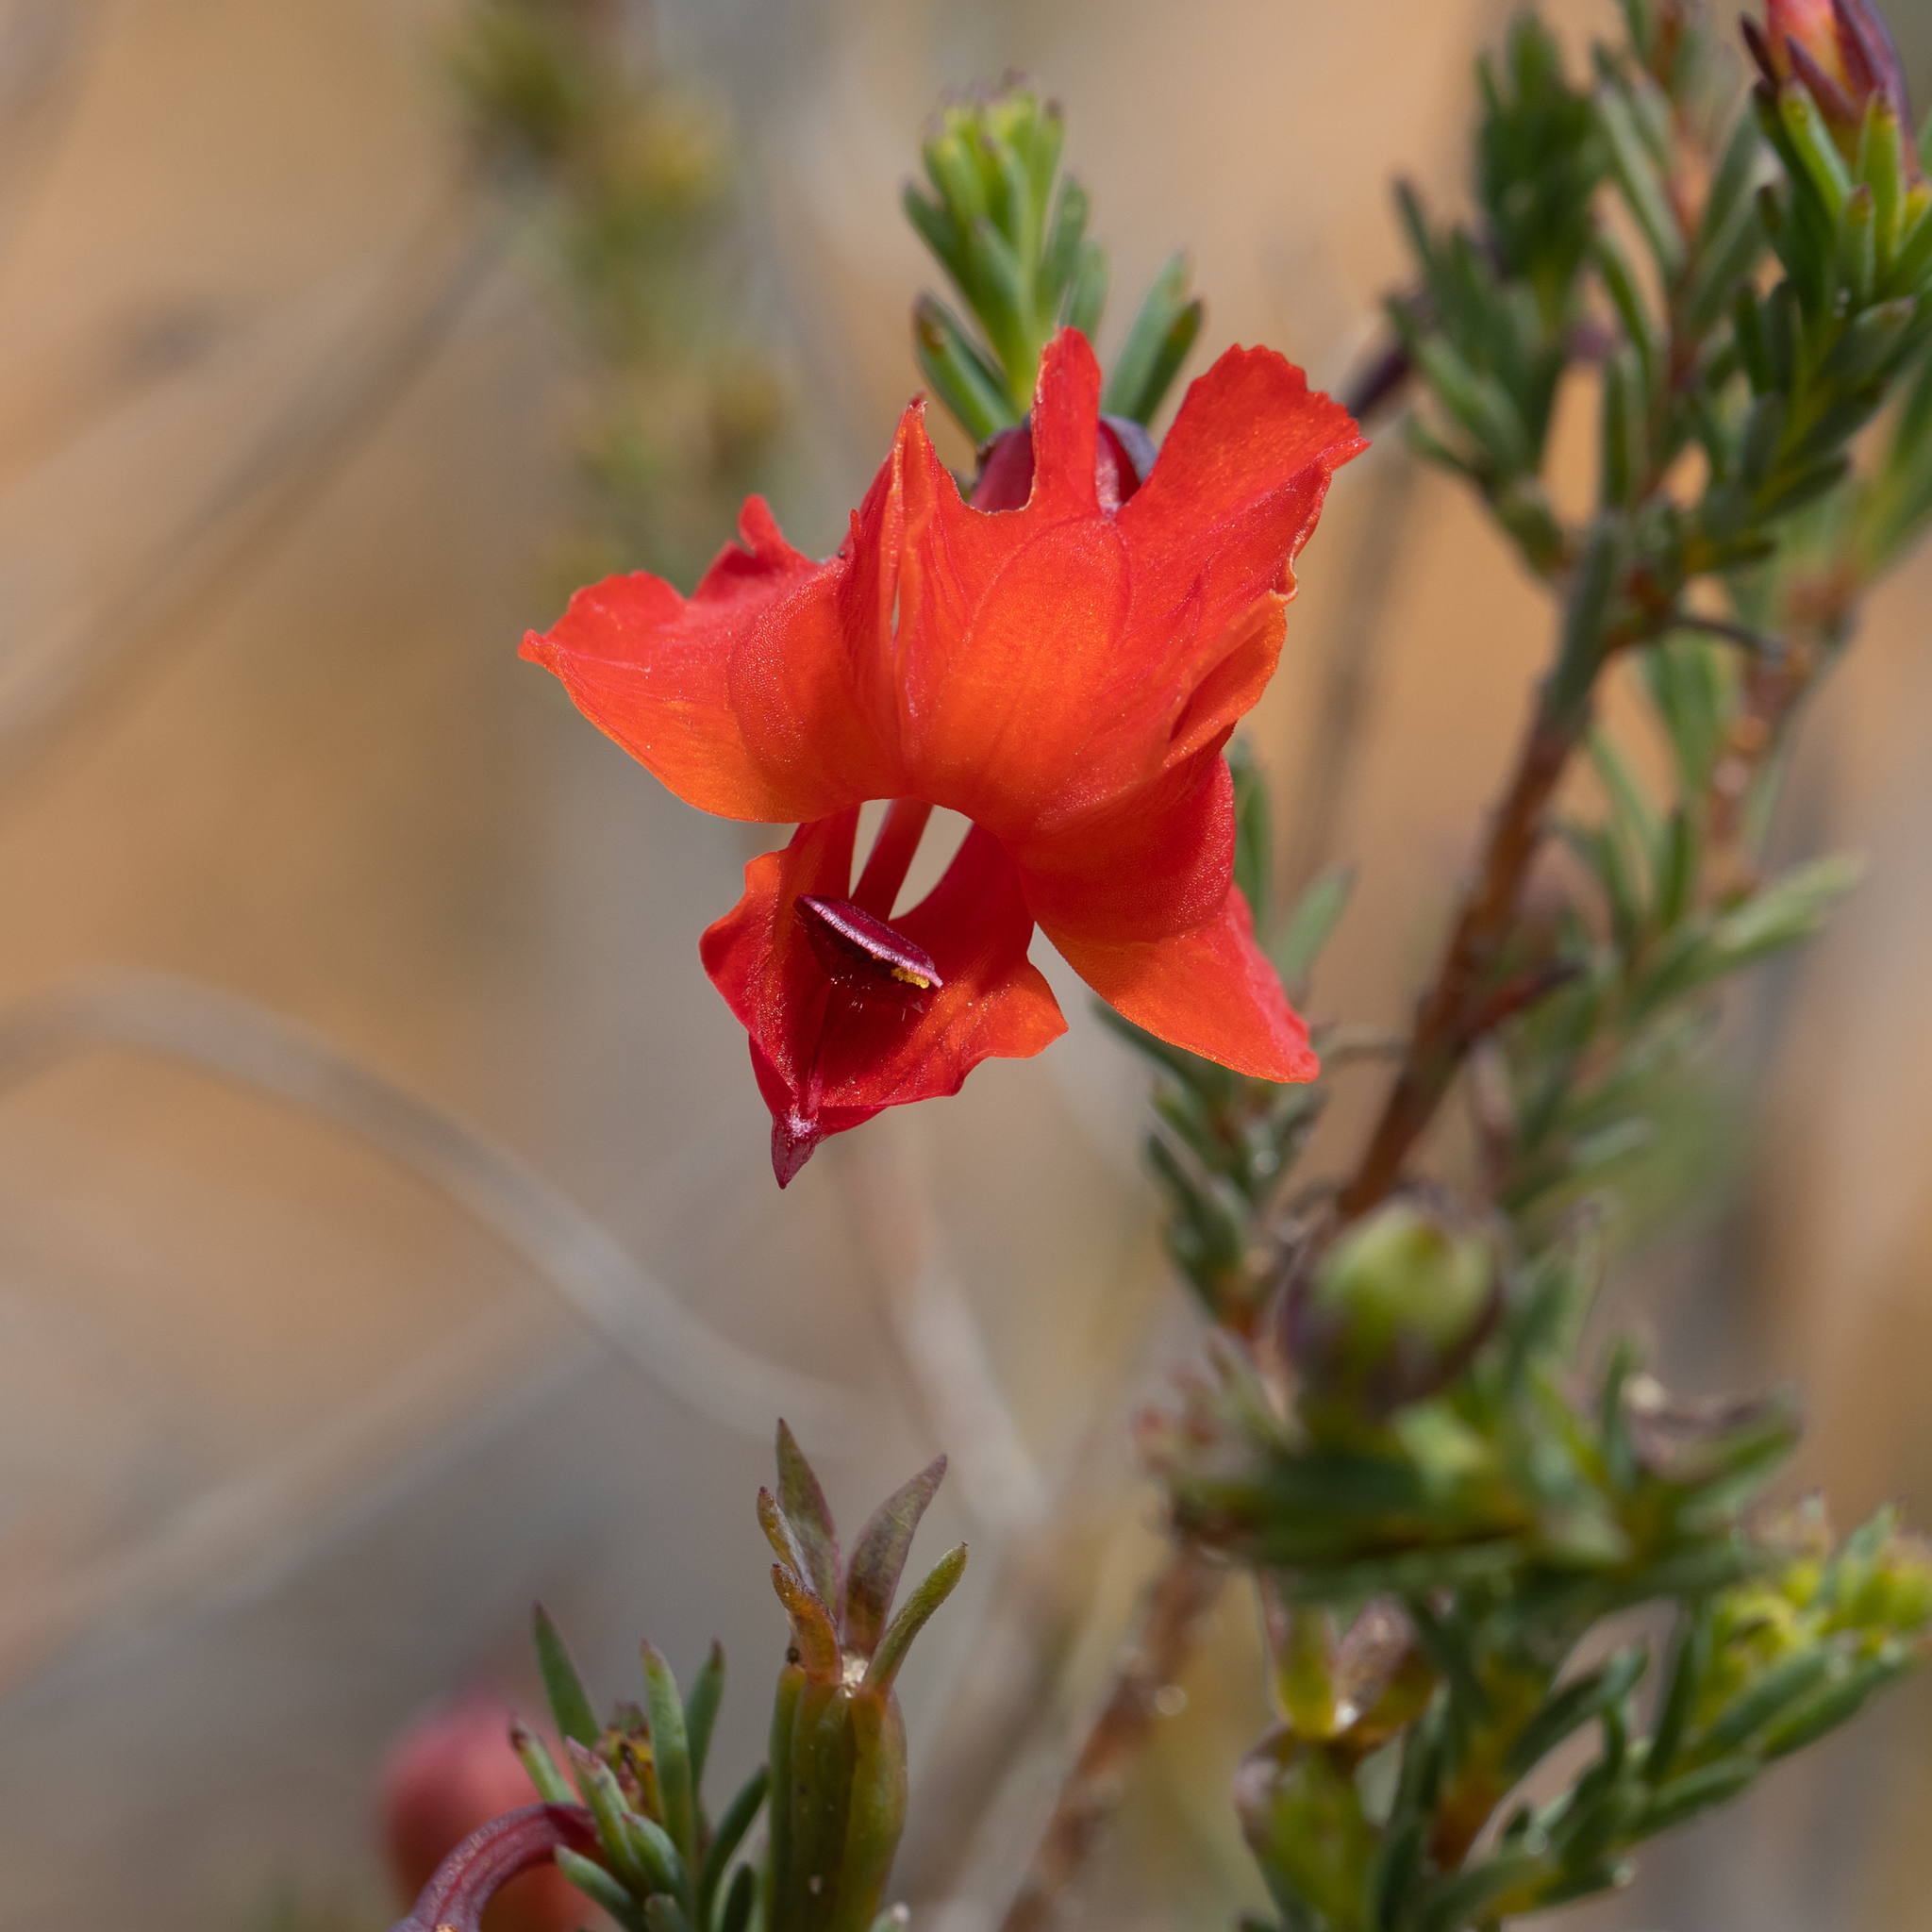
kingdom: Plantae
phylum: Tracheophyta
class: Magnoliopsida
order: Asterales
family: Goodeniaceae
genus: Lechenaultia
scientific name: Lechenaultia formosa
